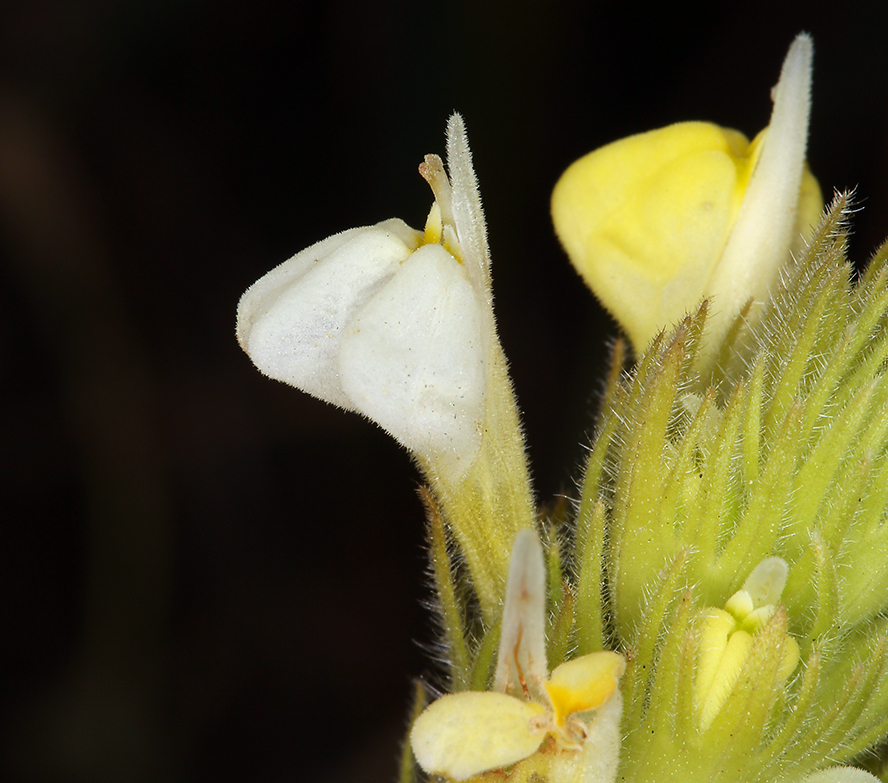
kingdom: Plantae
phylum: Tracheophyta
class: Magnoliopsida
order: Lamiales
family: Orobanchaceae
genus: Castilleja
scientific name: Castilleja rubicundula
